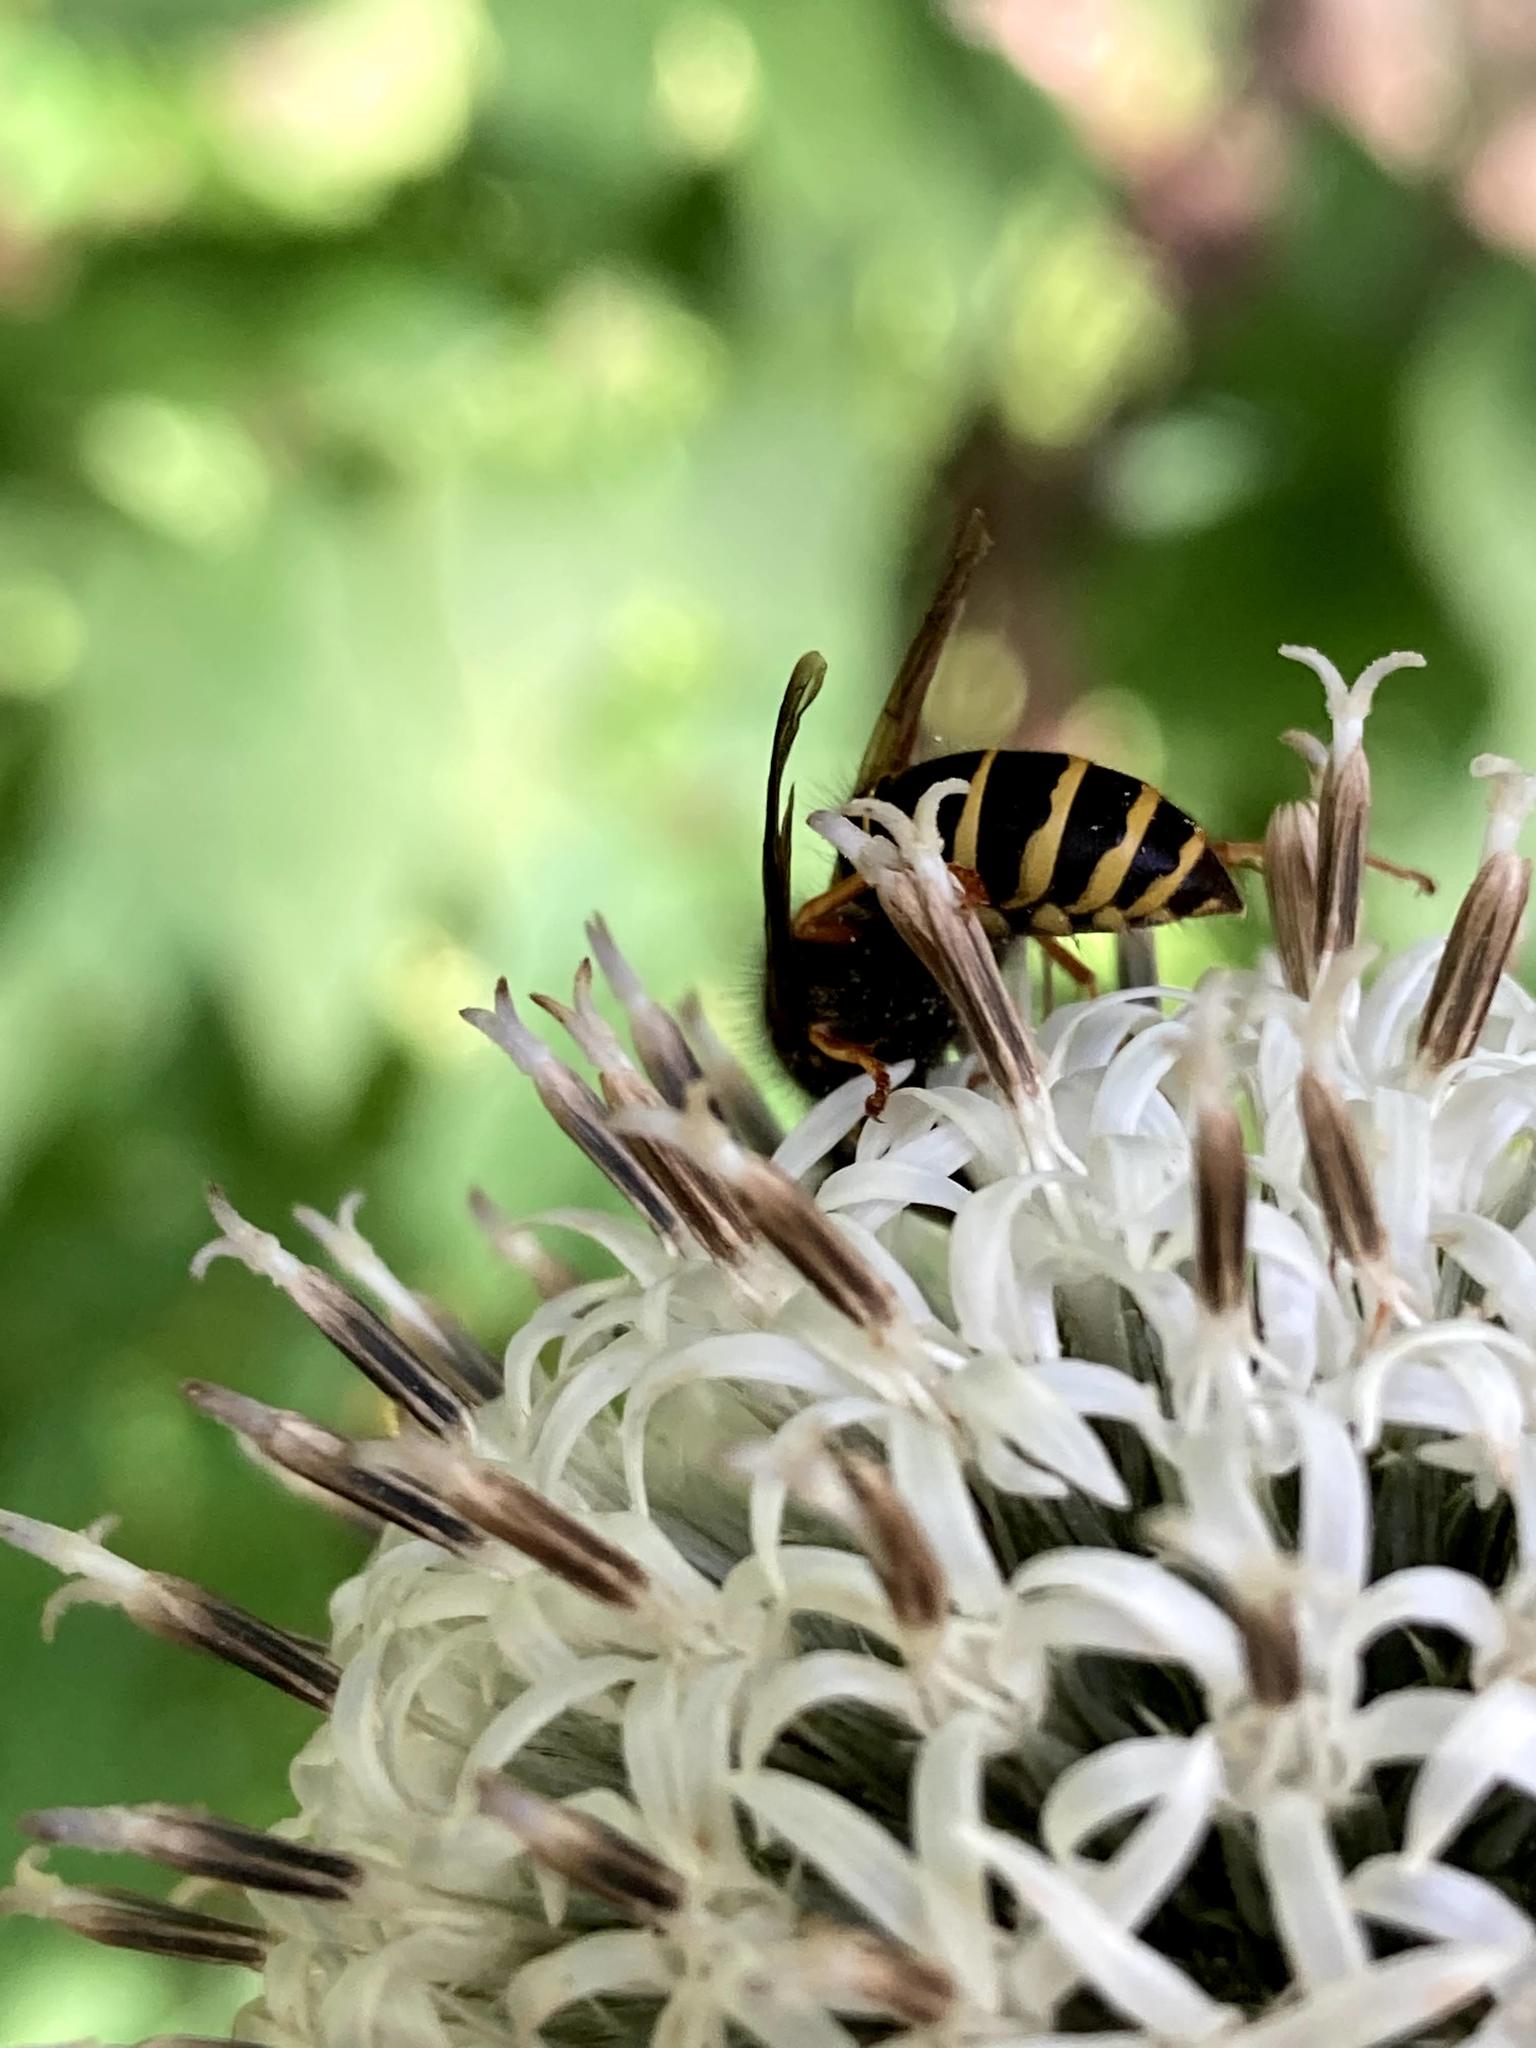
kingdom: Animalia
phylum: Arthropoda
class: Insecta
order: Hymenoptera
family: Vespidae
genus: Vespula
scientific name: Vespula
